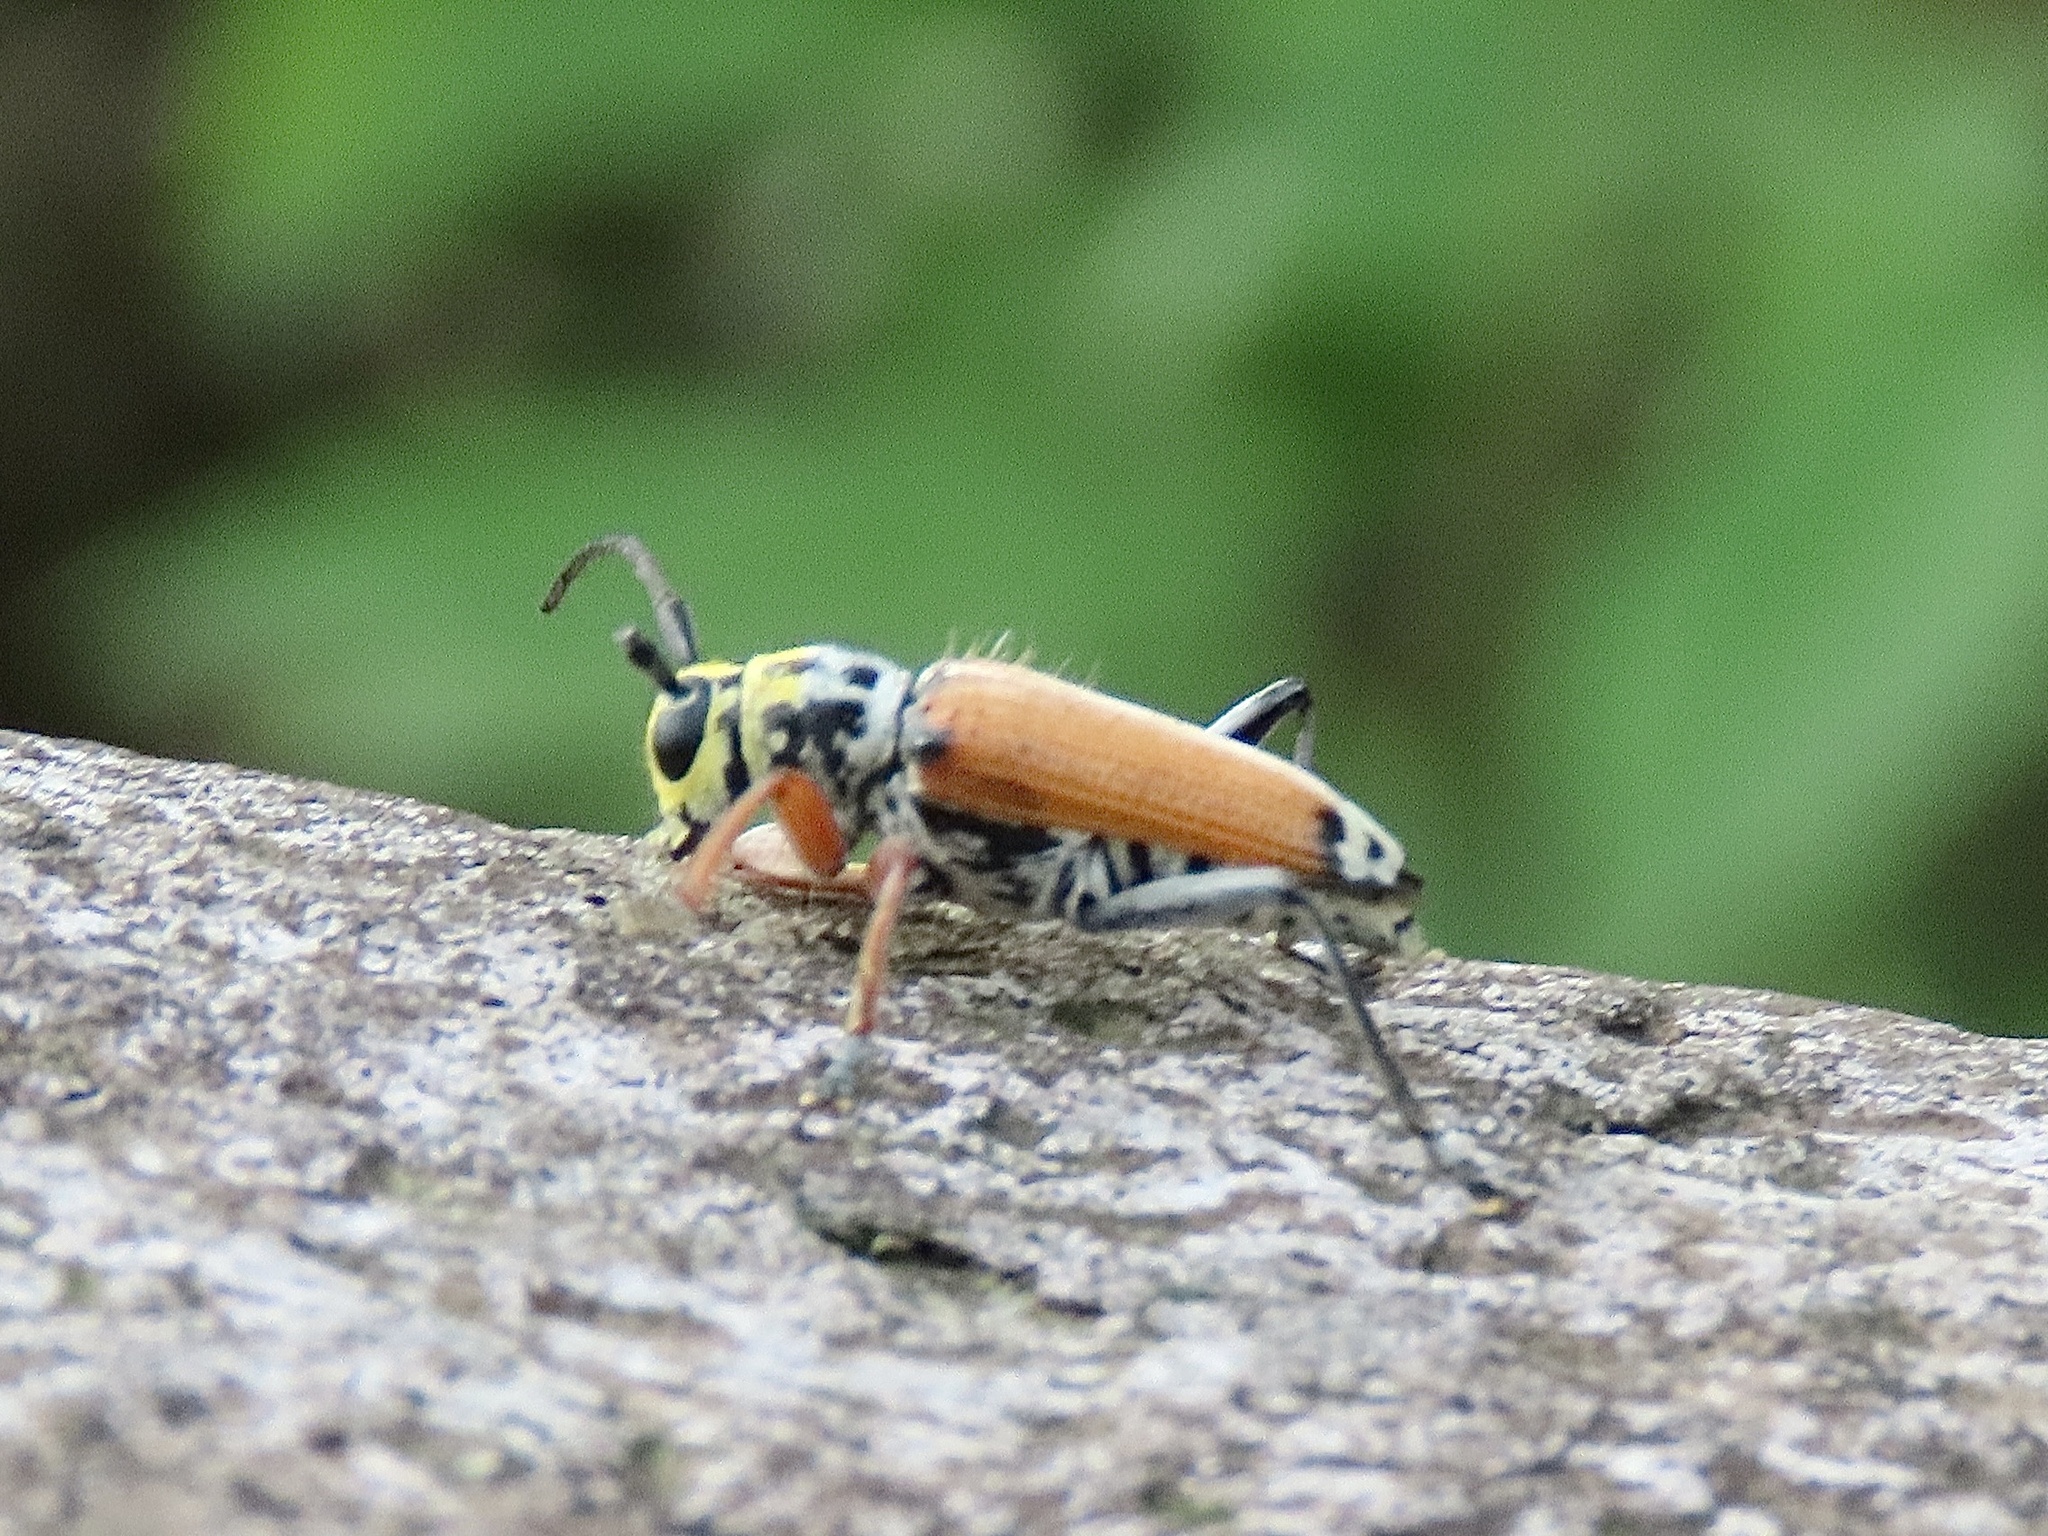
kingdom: Animalia
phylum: Arthropoda
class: Insecta
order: Coleoptera
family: Cerambycidae
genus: Glenea
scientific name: Glenea cantor
